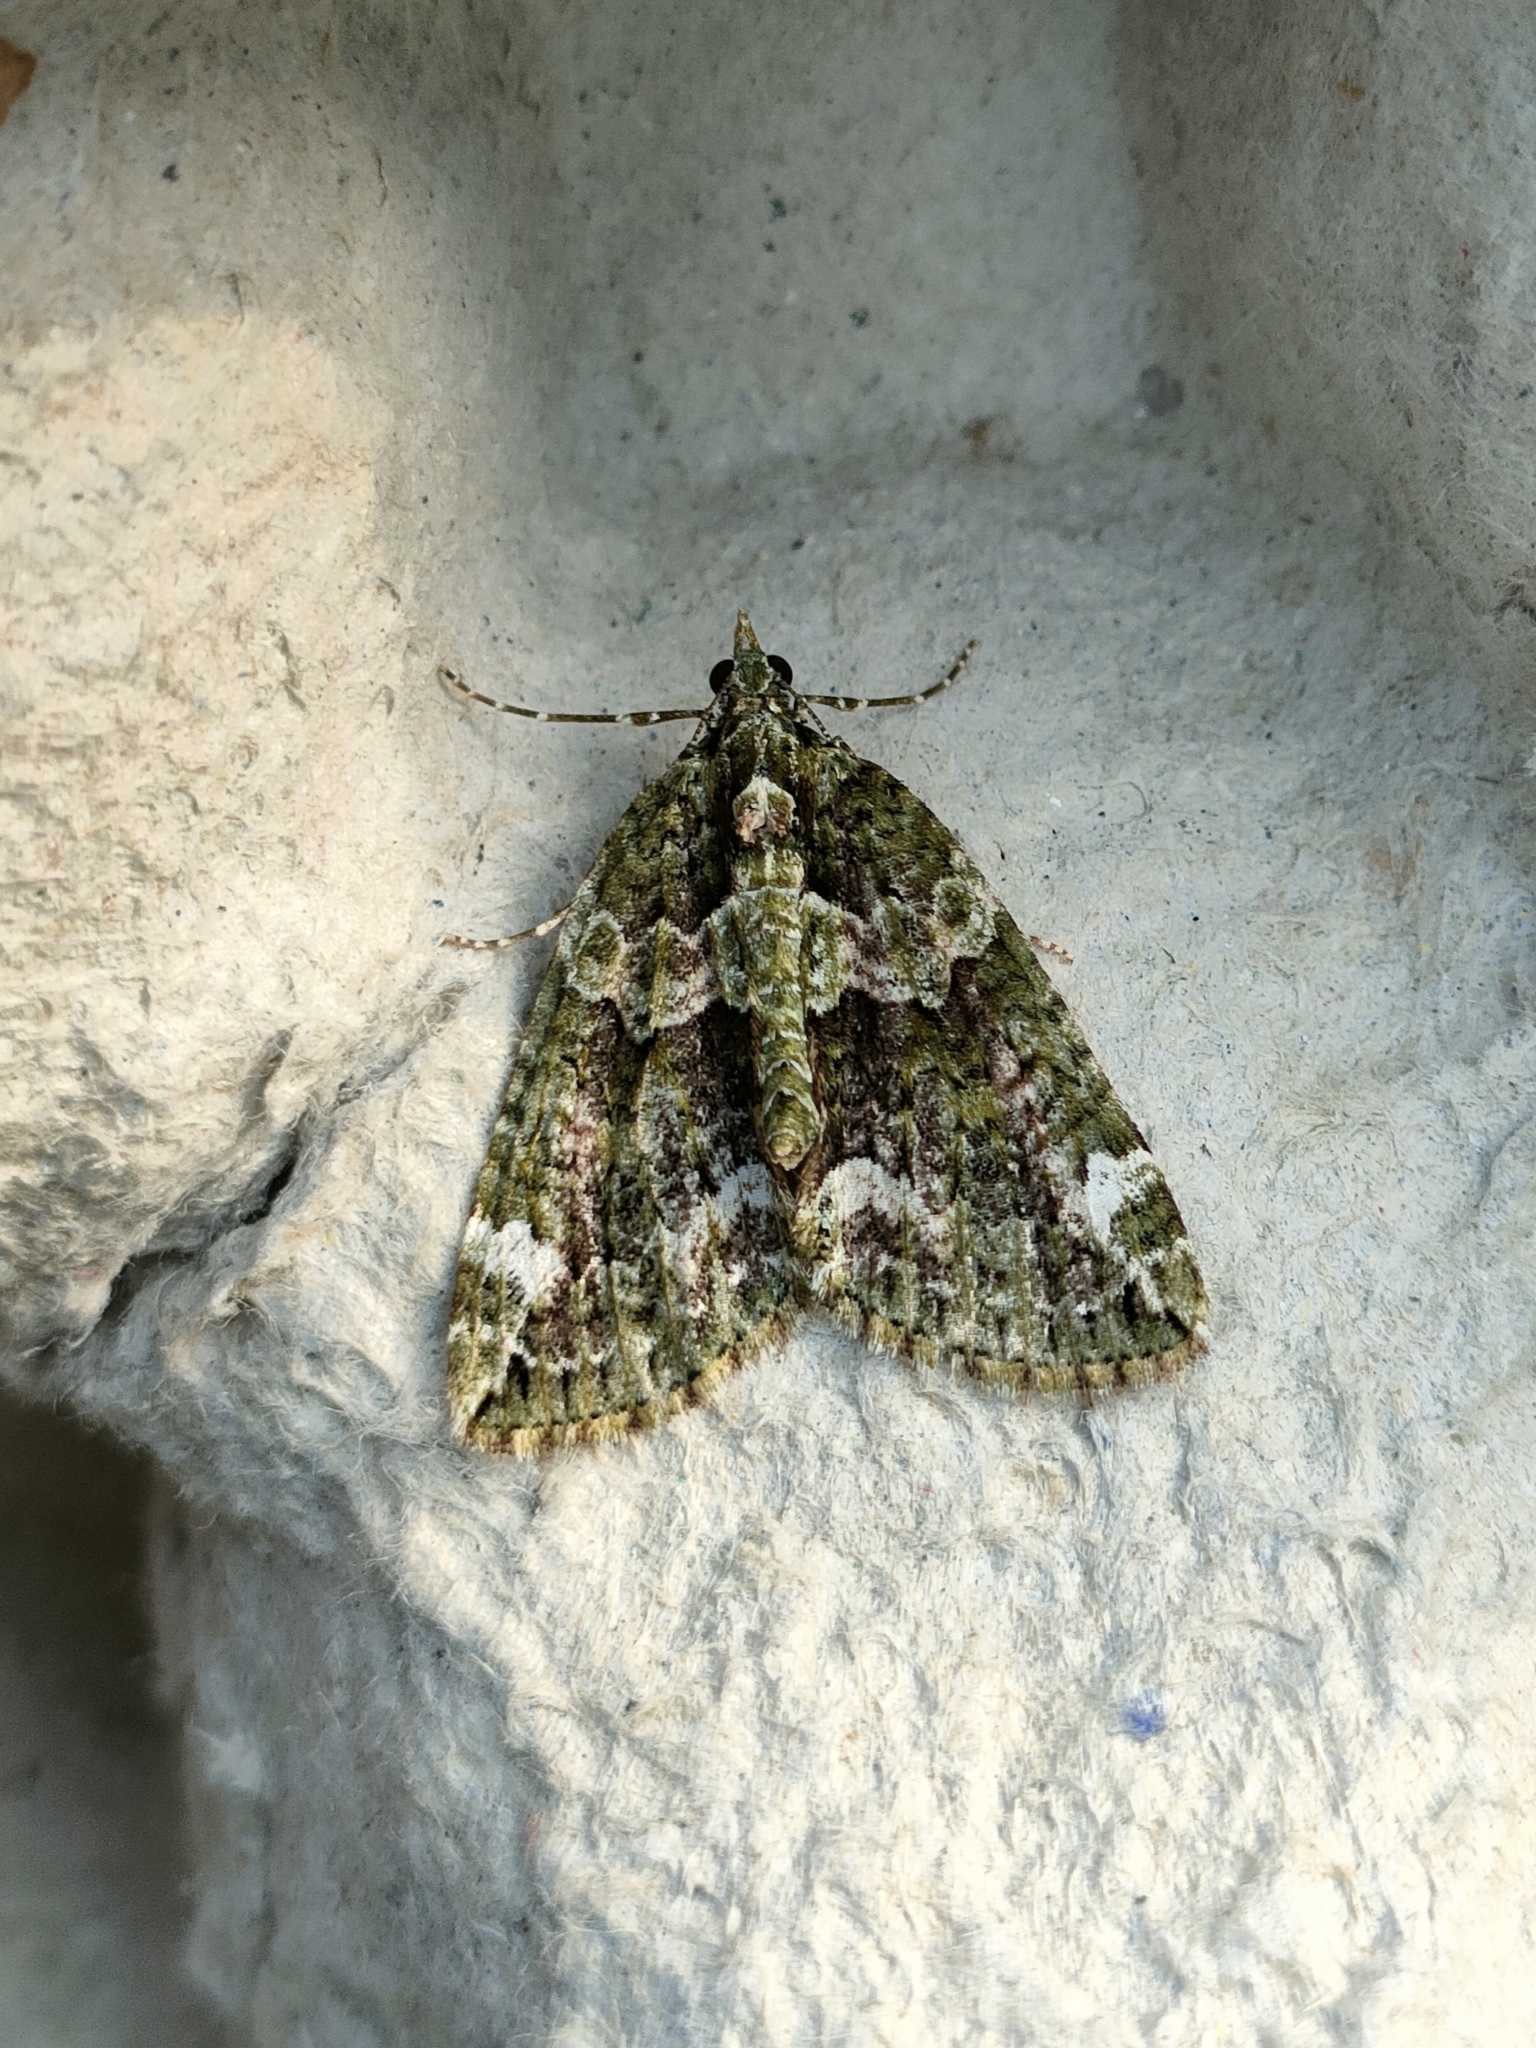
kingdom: Animalia
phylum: Arthropoda
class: Insecta
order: Lepidoptera
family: Geometridae
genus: Chloroclysta
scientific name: Chloroclysta siterata
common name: Red-green carpet
